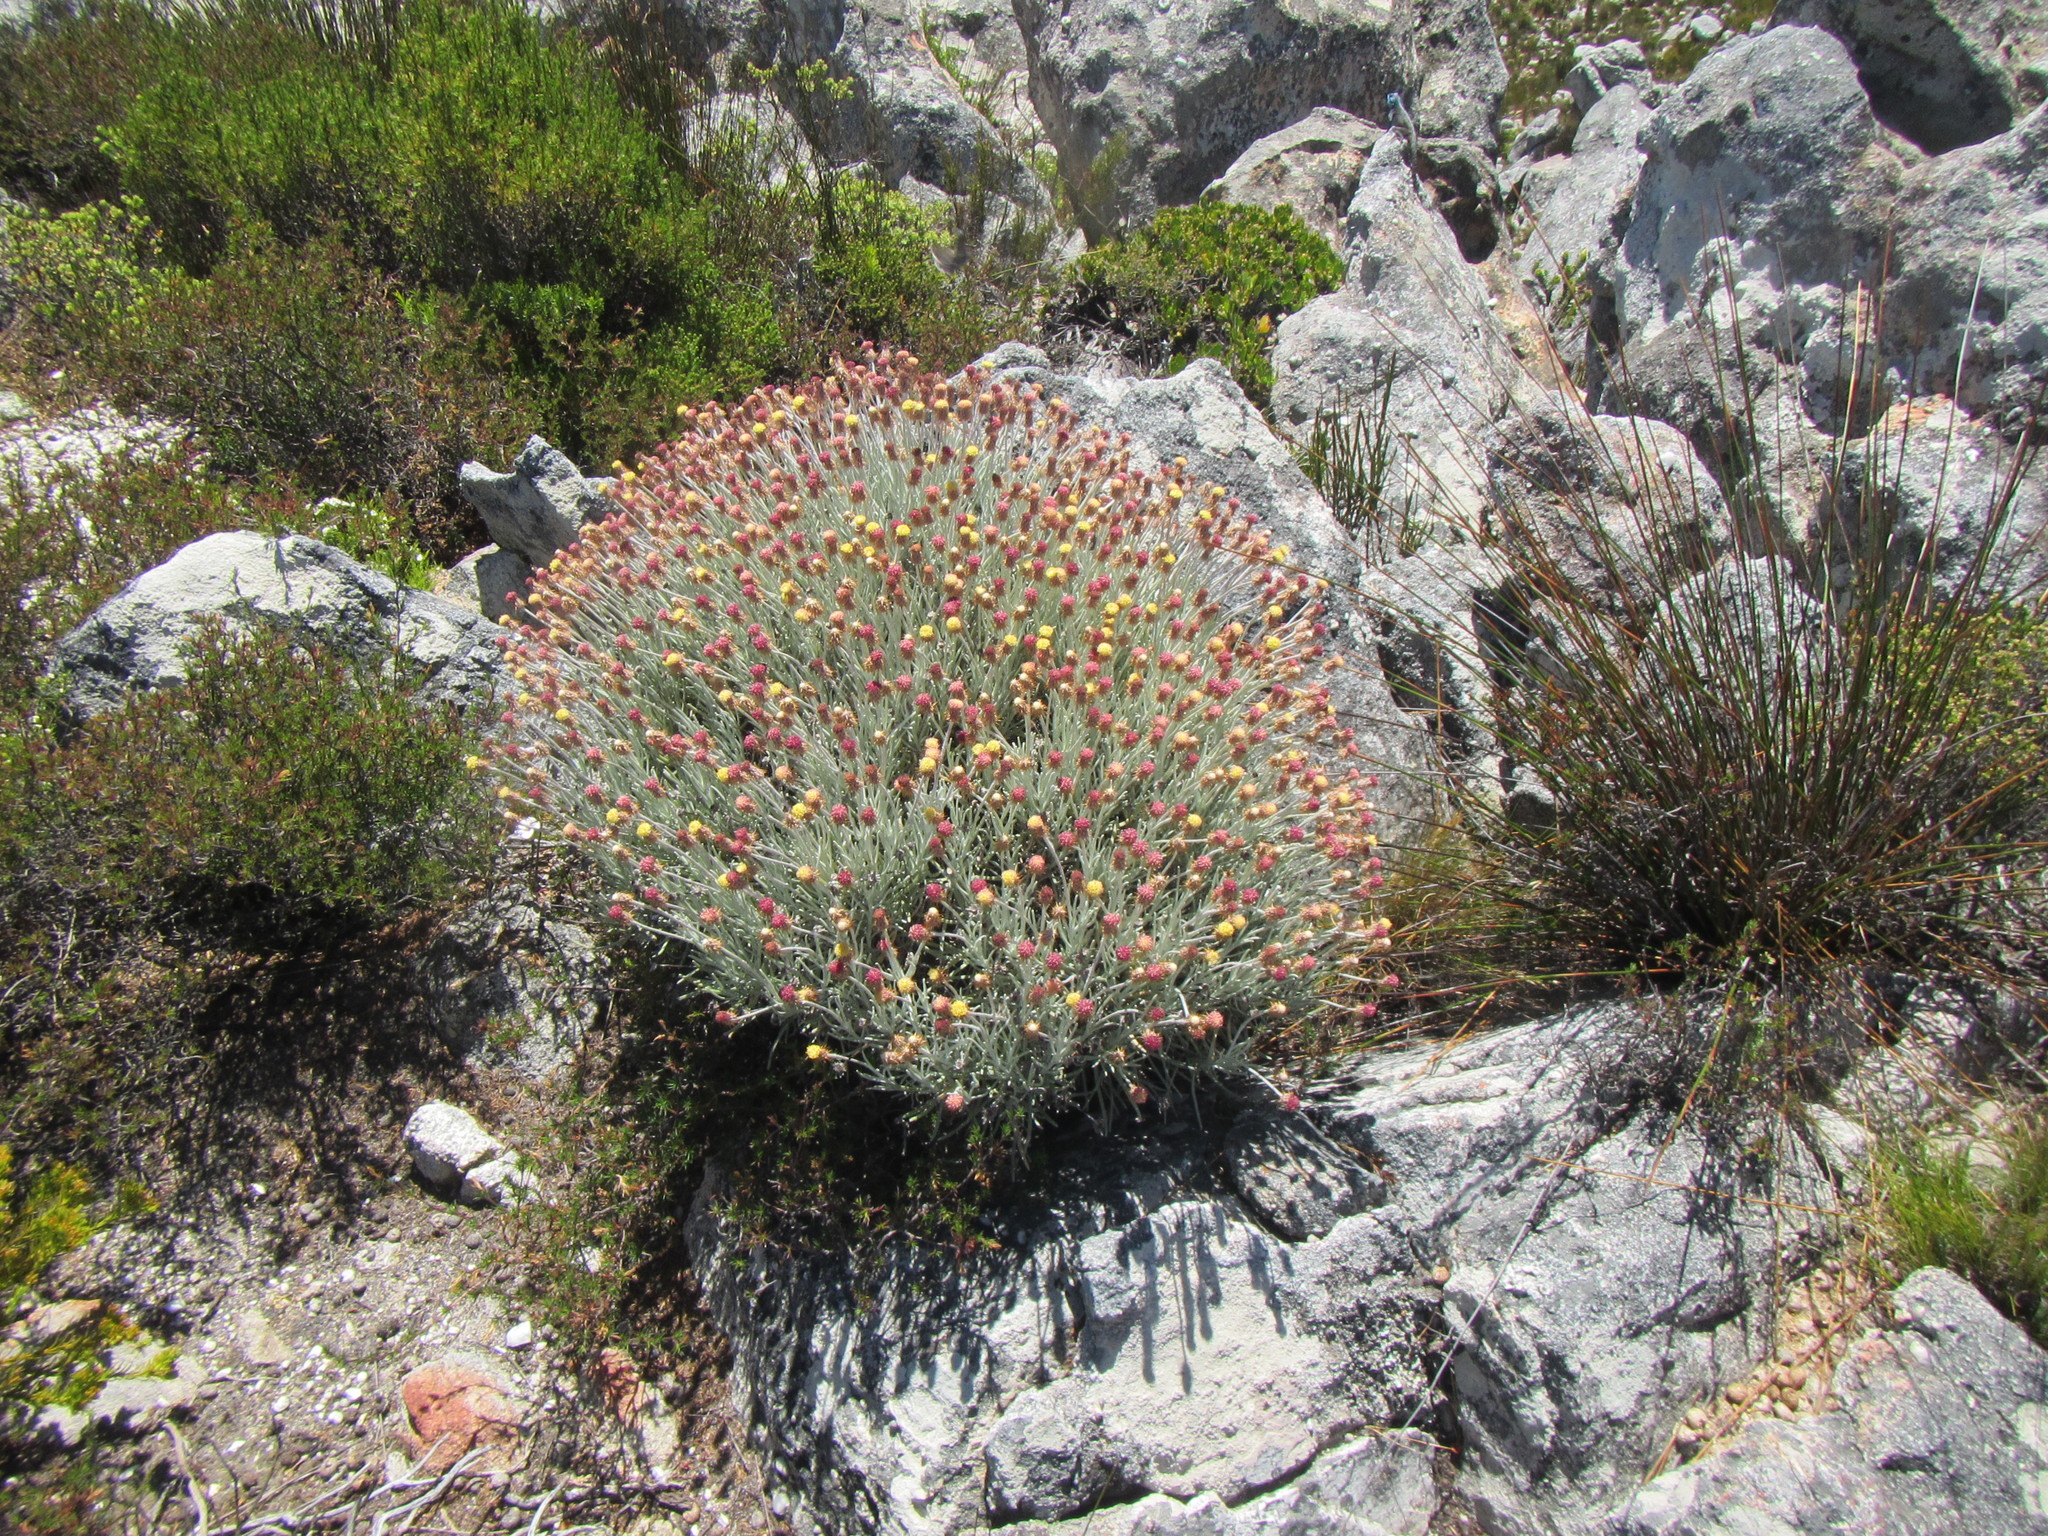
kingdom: Plantae
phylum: Tracheophyta
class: Magnoliopsida
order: Asterales
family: Asteraceae
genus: Syncarpha
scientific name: Syncarpha gnaphaloides
